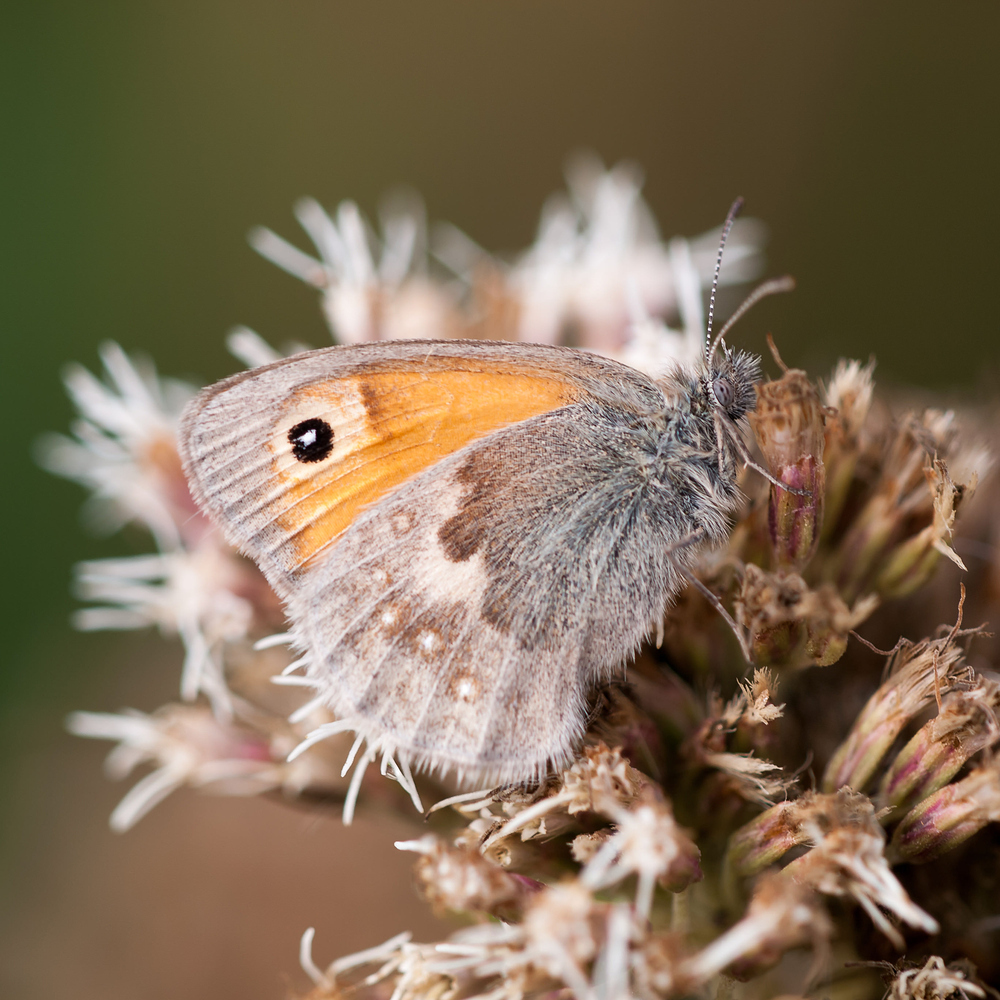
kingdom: Animalia
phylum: Arthropoda
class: Insecta
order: Lepidoptera
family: Nymphalidae
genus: Coenonympha
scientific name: Coenonympha pamphilus
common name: Small heath
